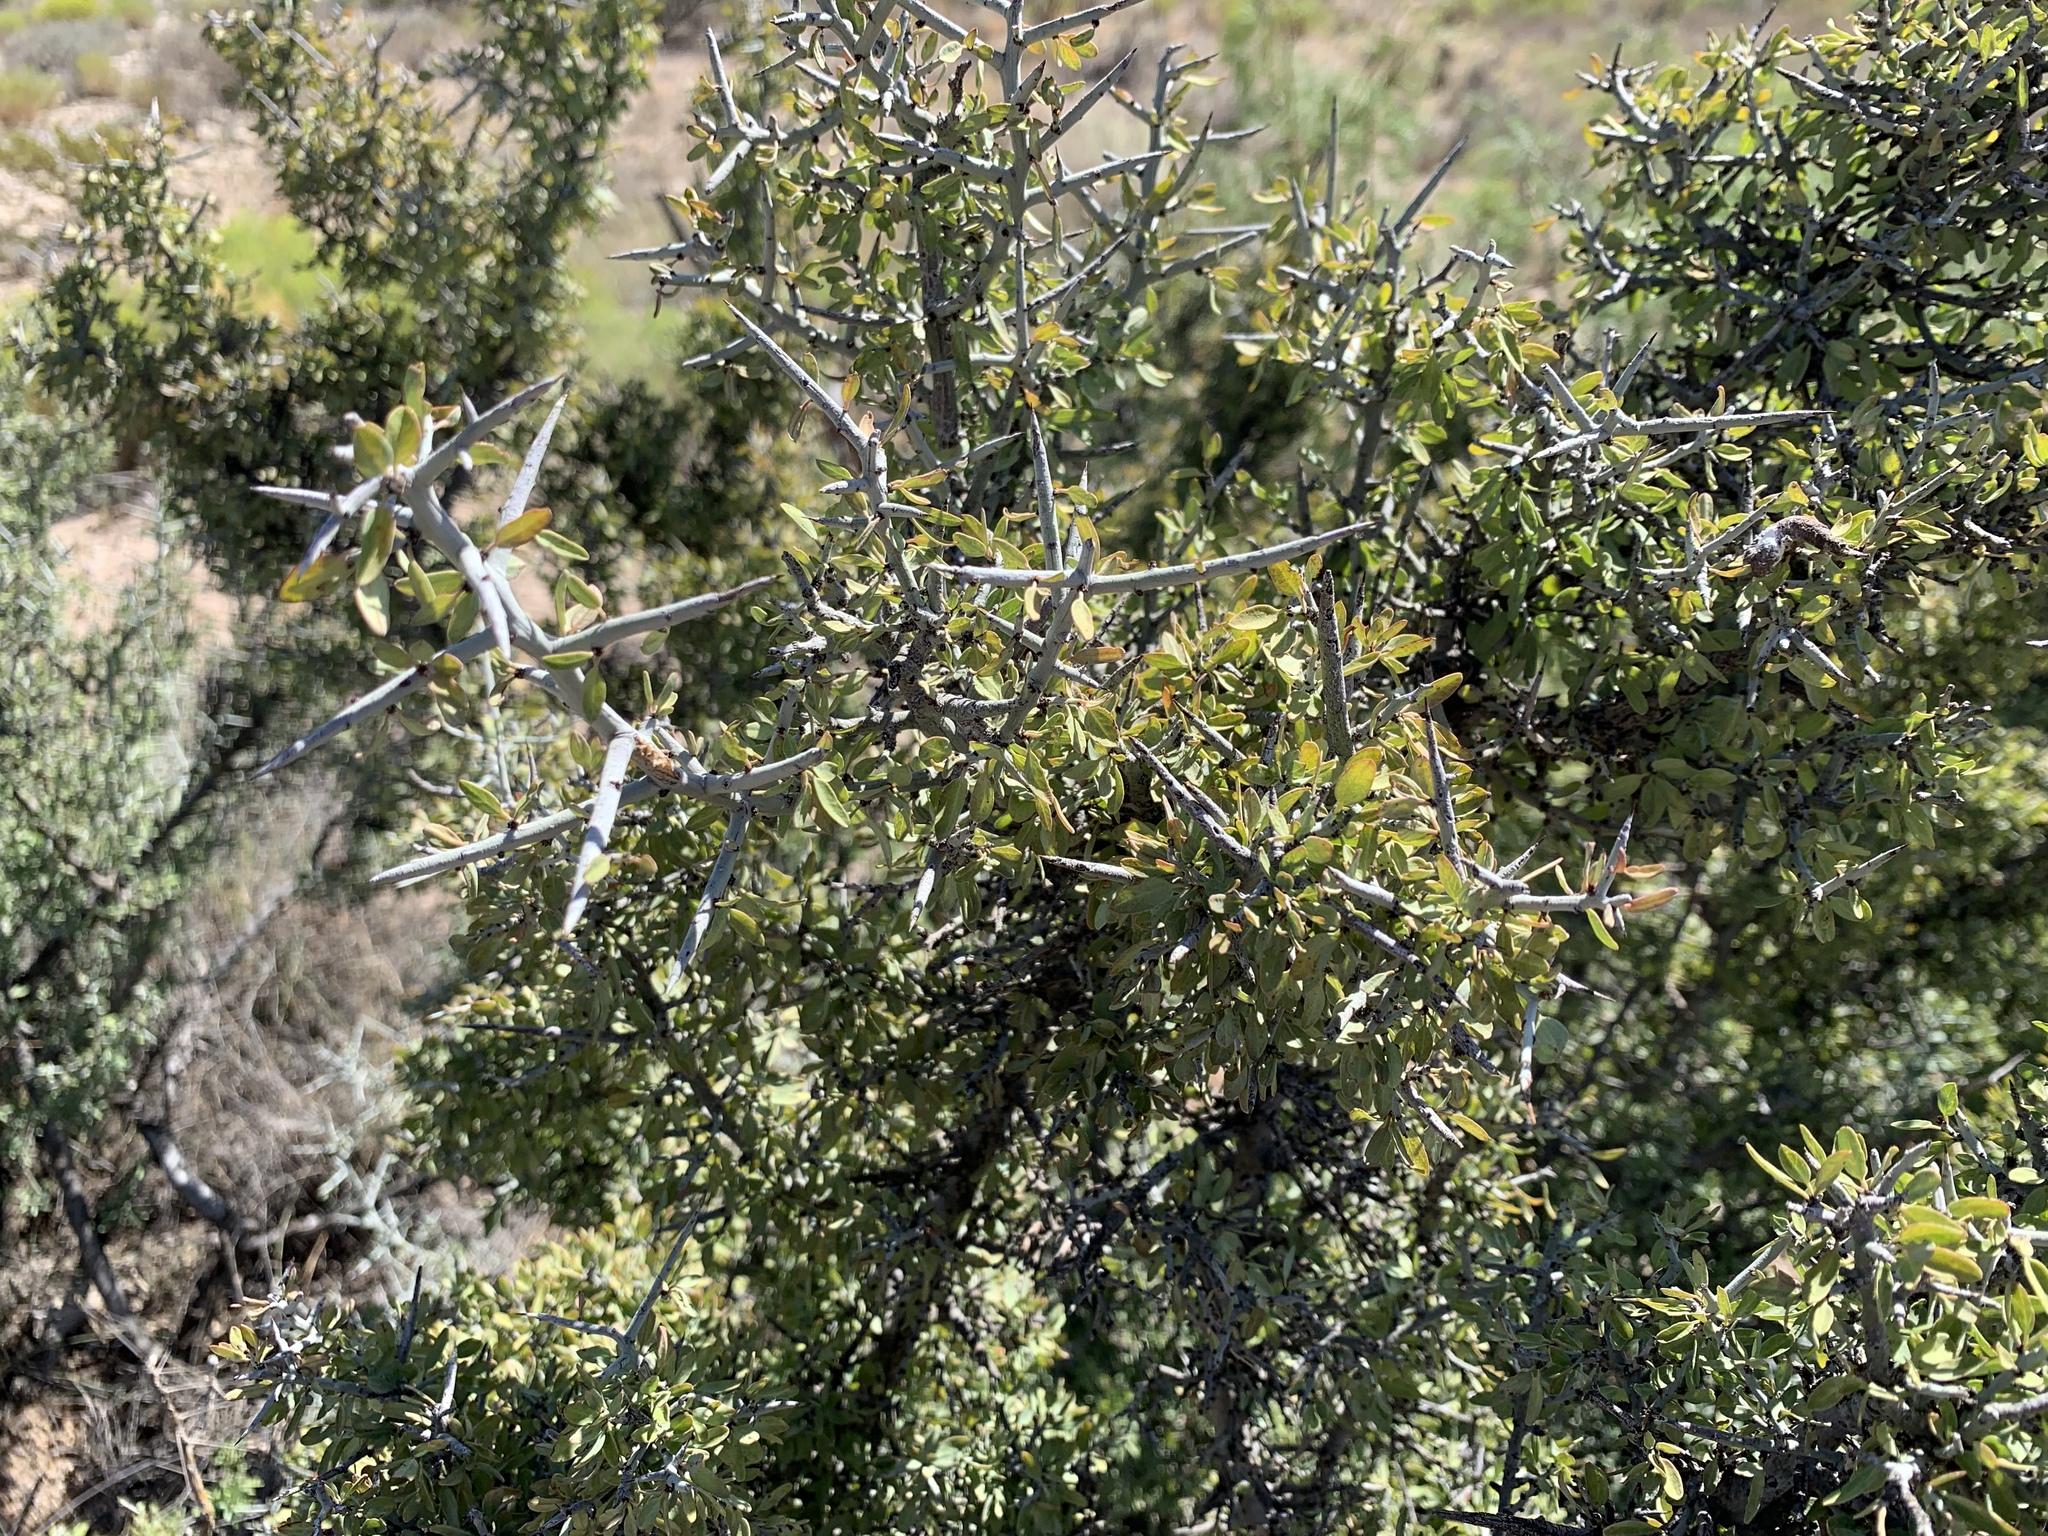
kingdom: Plantae
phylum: Tracheophyta
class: Magnoliopsida
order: Rosales
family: Rhamnaceae
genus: Sarcomphalus
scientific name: Sarcomphalus obtusifolius
